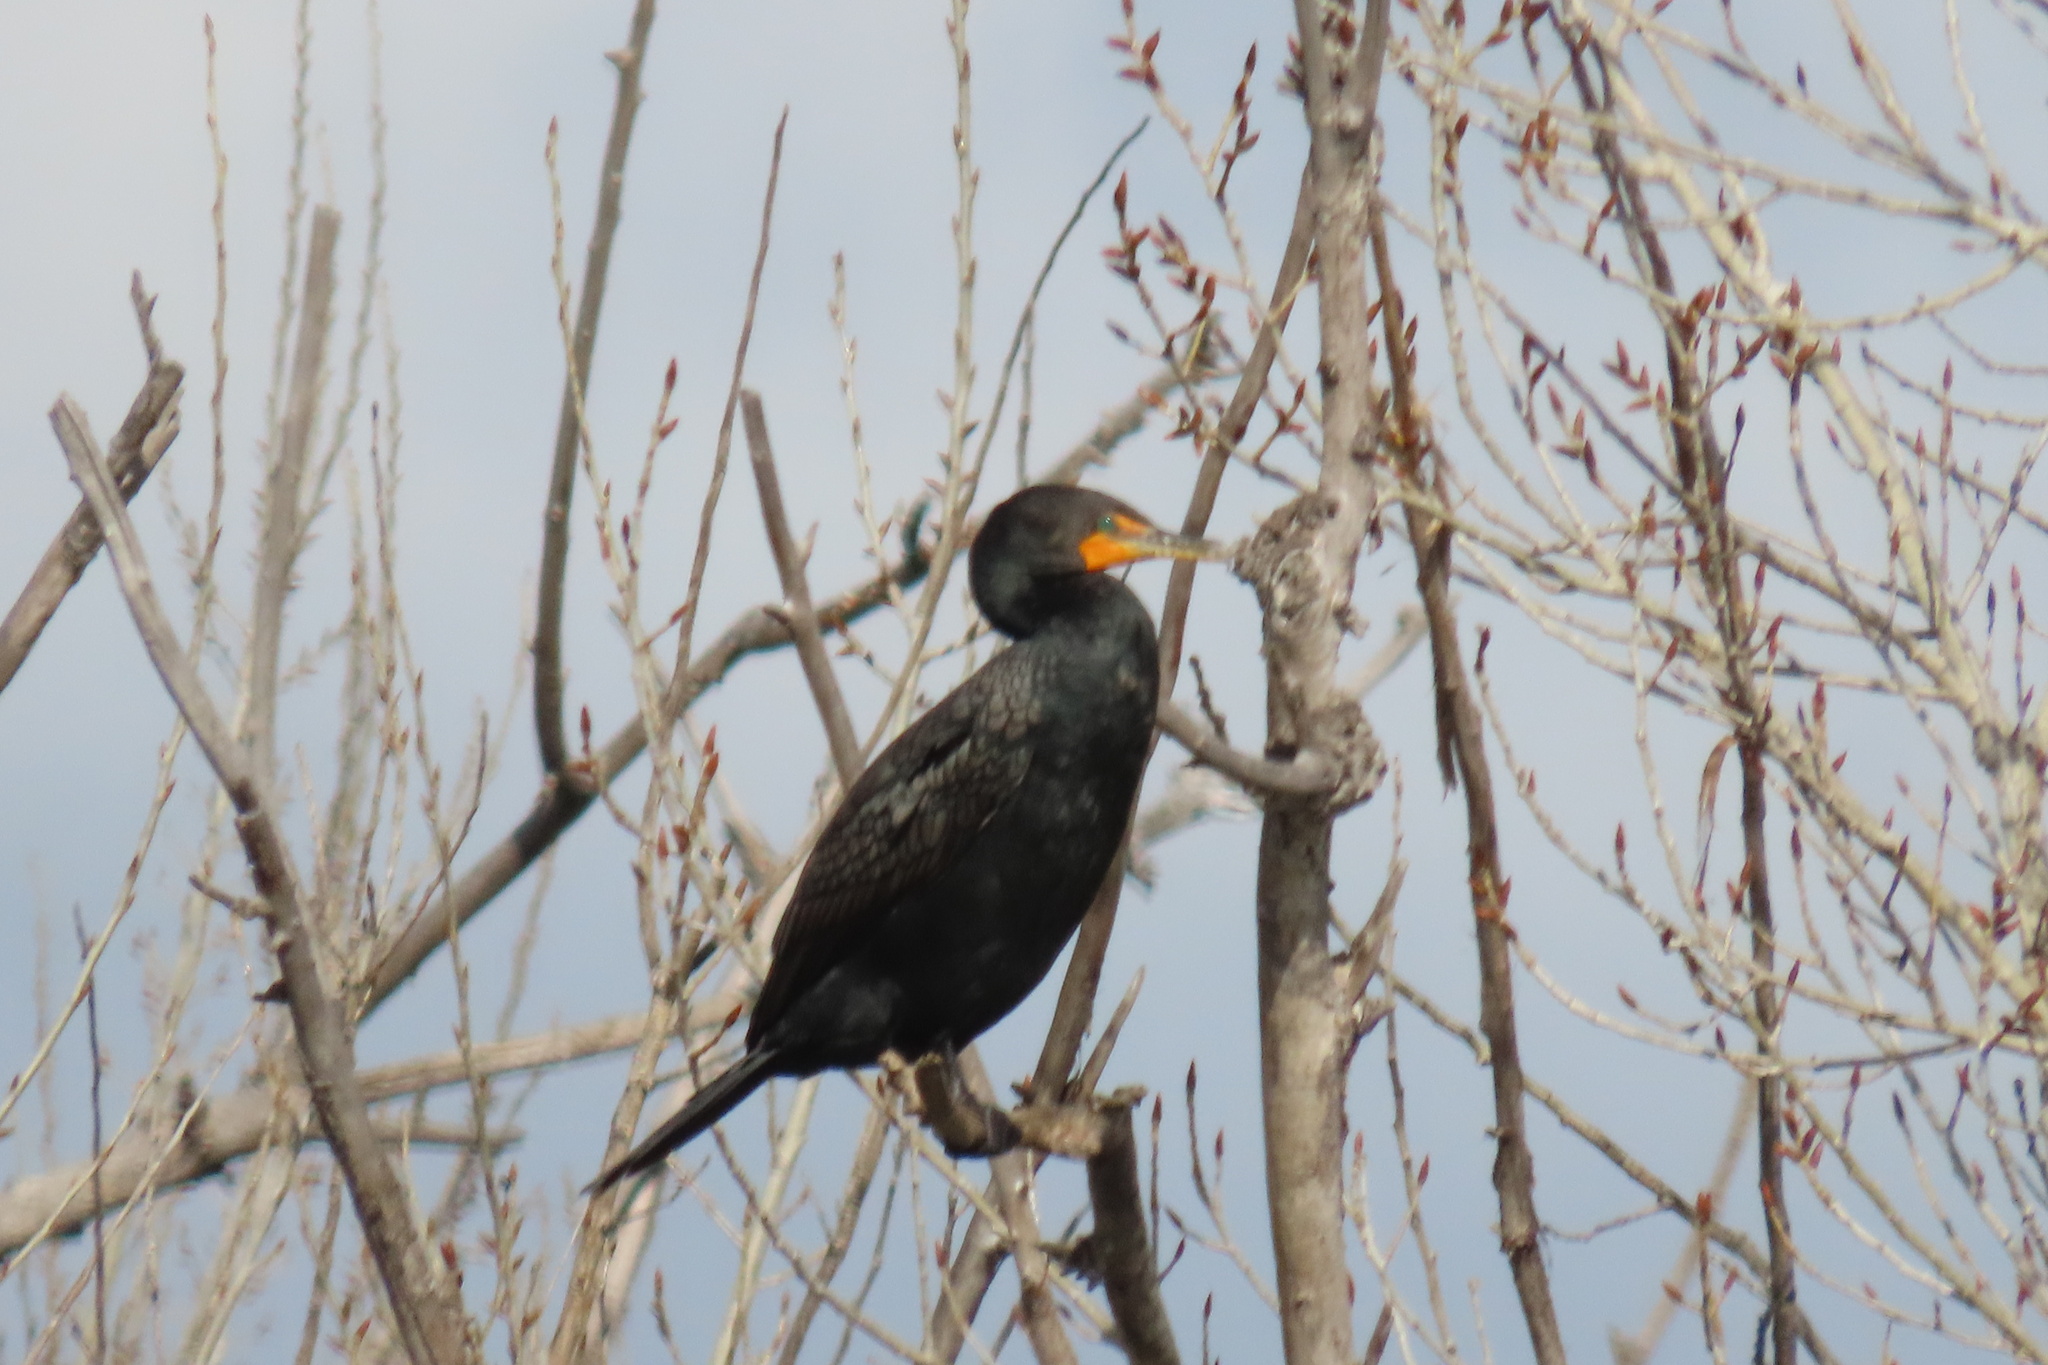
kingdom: Animalia
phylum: Chordata
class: Aves
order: Suliformes
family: Phalacrocoracidae
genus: Phalacrocorax
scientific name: Phalacrocorax auritus
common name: Double-crested cormorant
